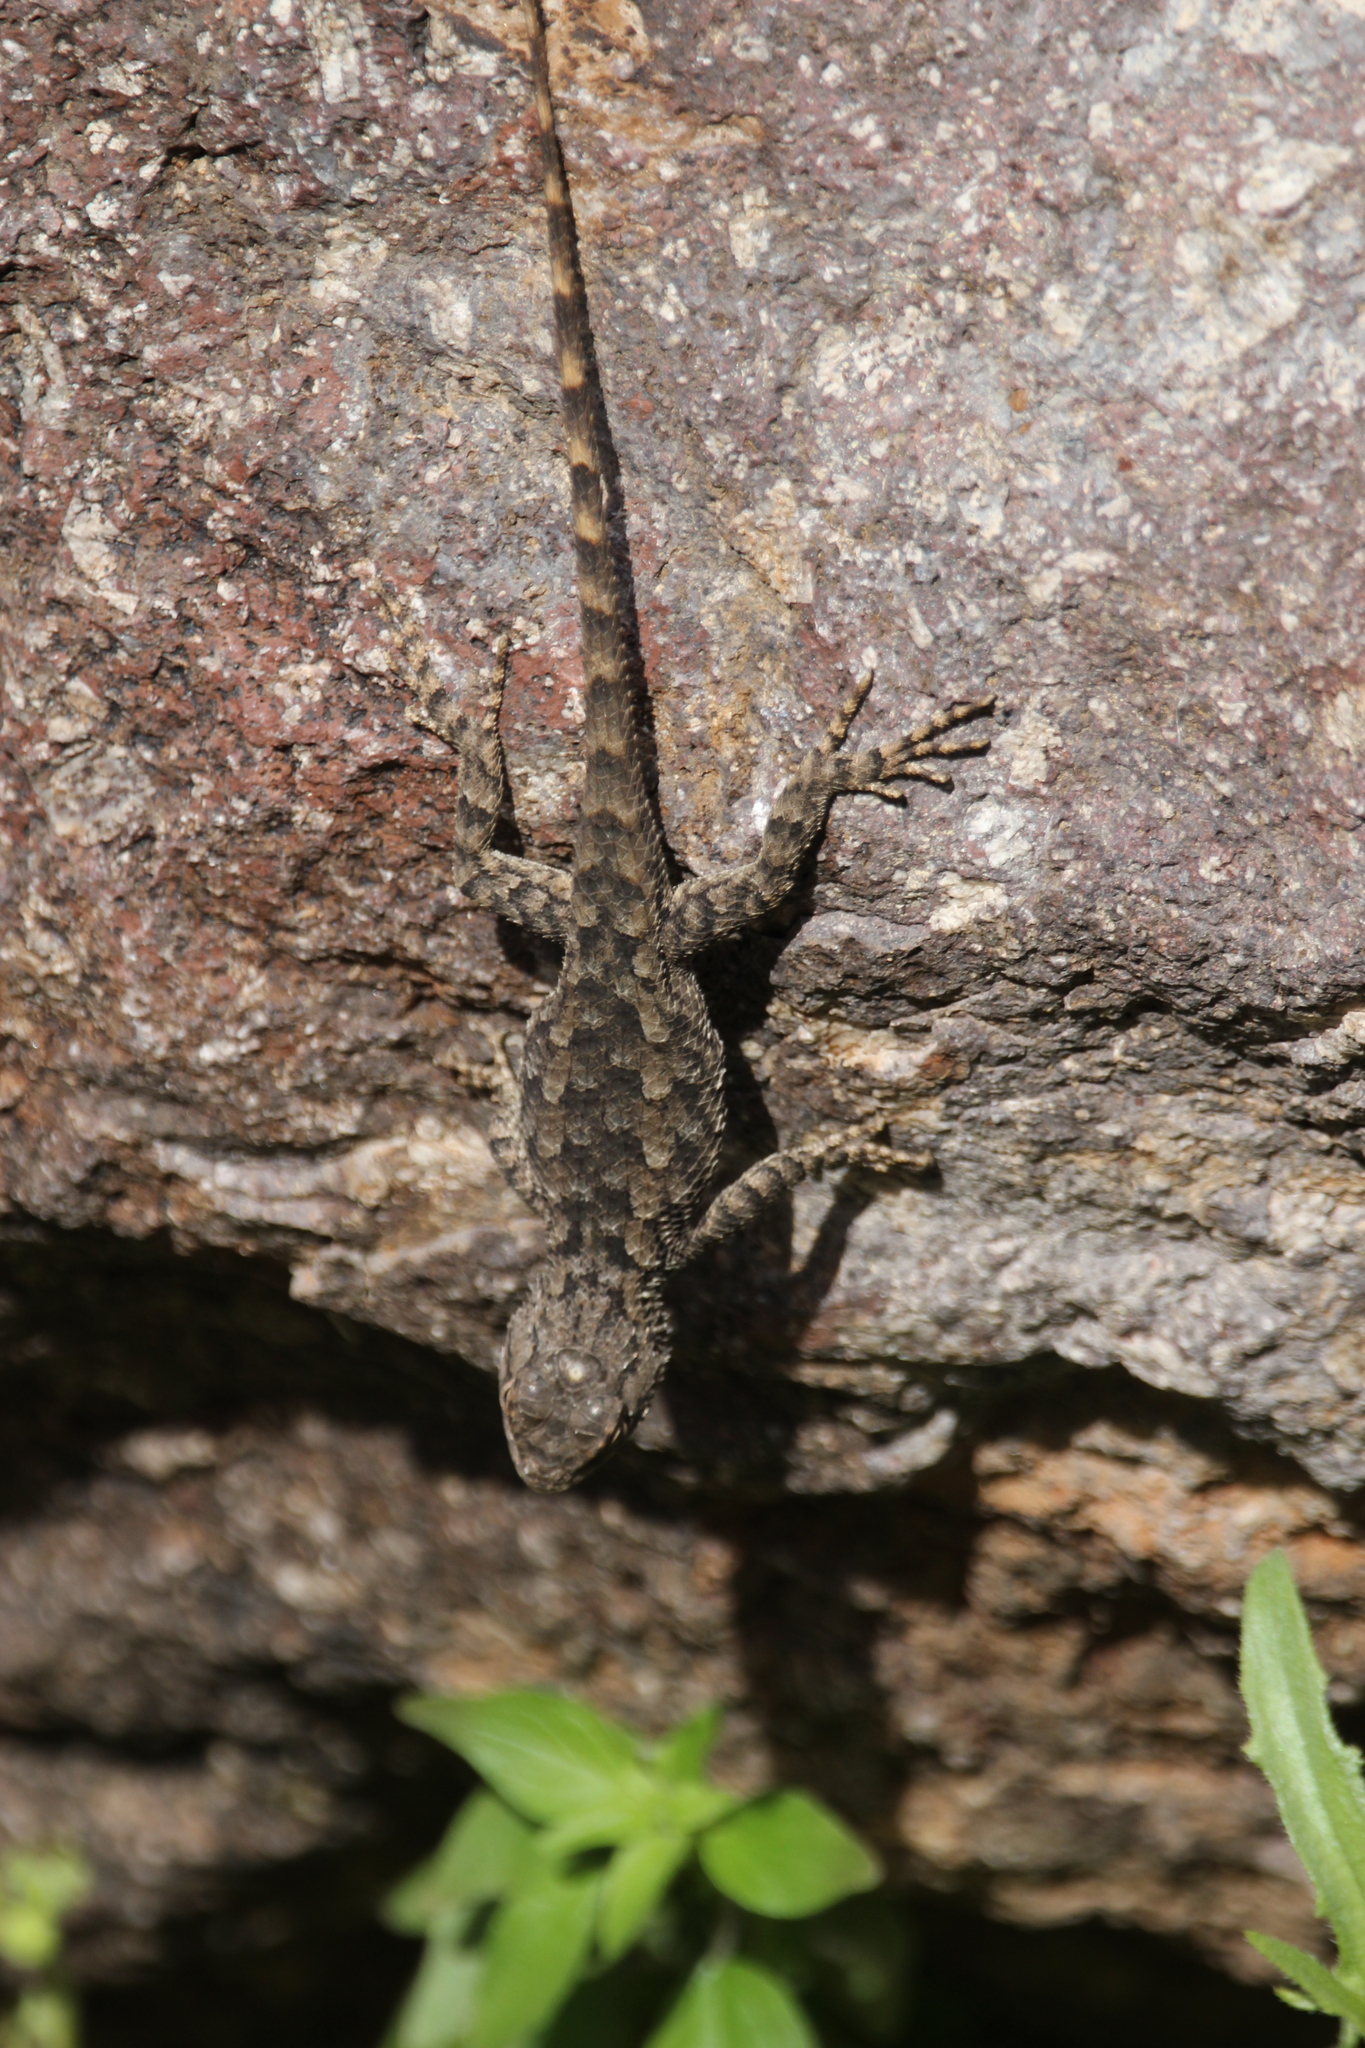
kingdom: Animalia
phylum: Chordata
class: Squamata
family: Phrynosomatidae
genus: Sceloporus
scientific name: Sceloporus clarkii
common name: Clark's spiny lizard
